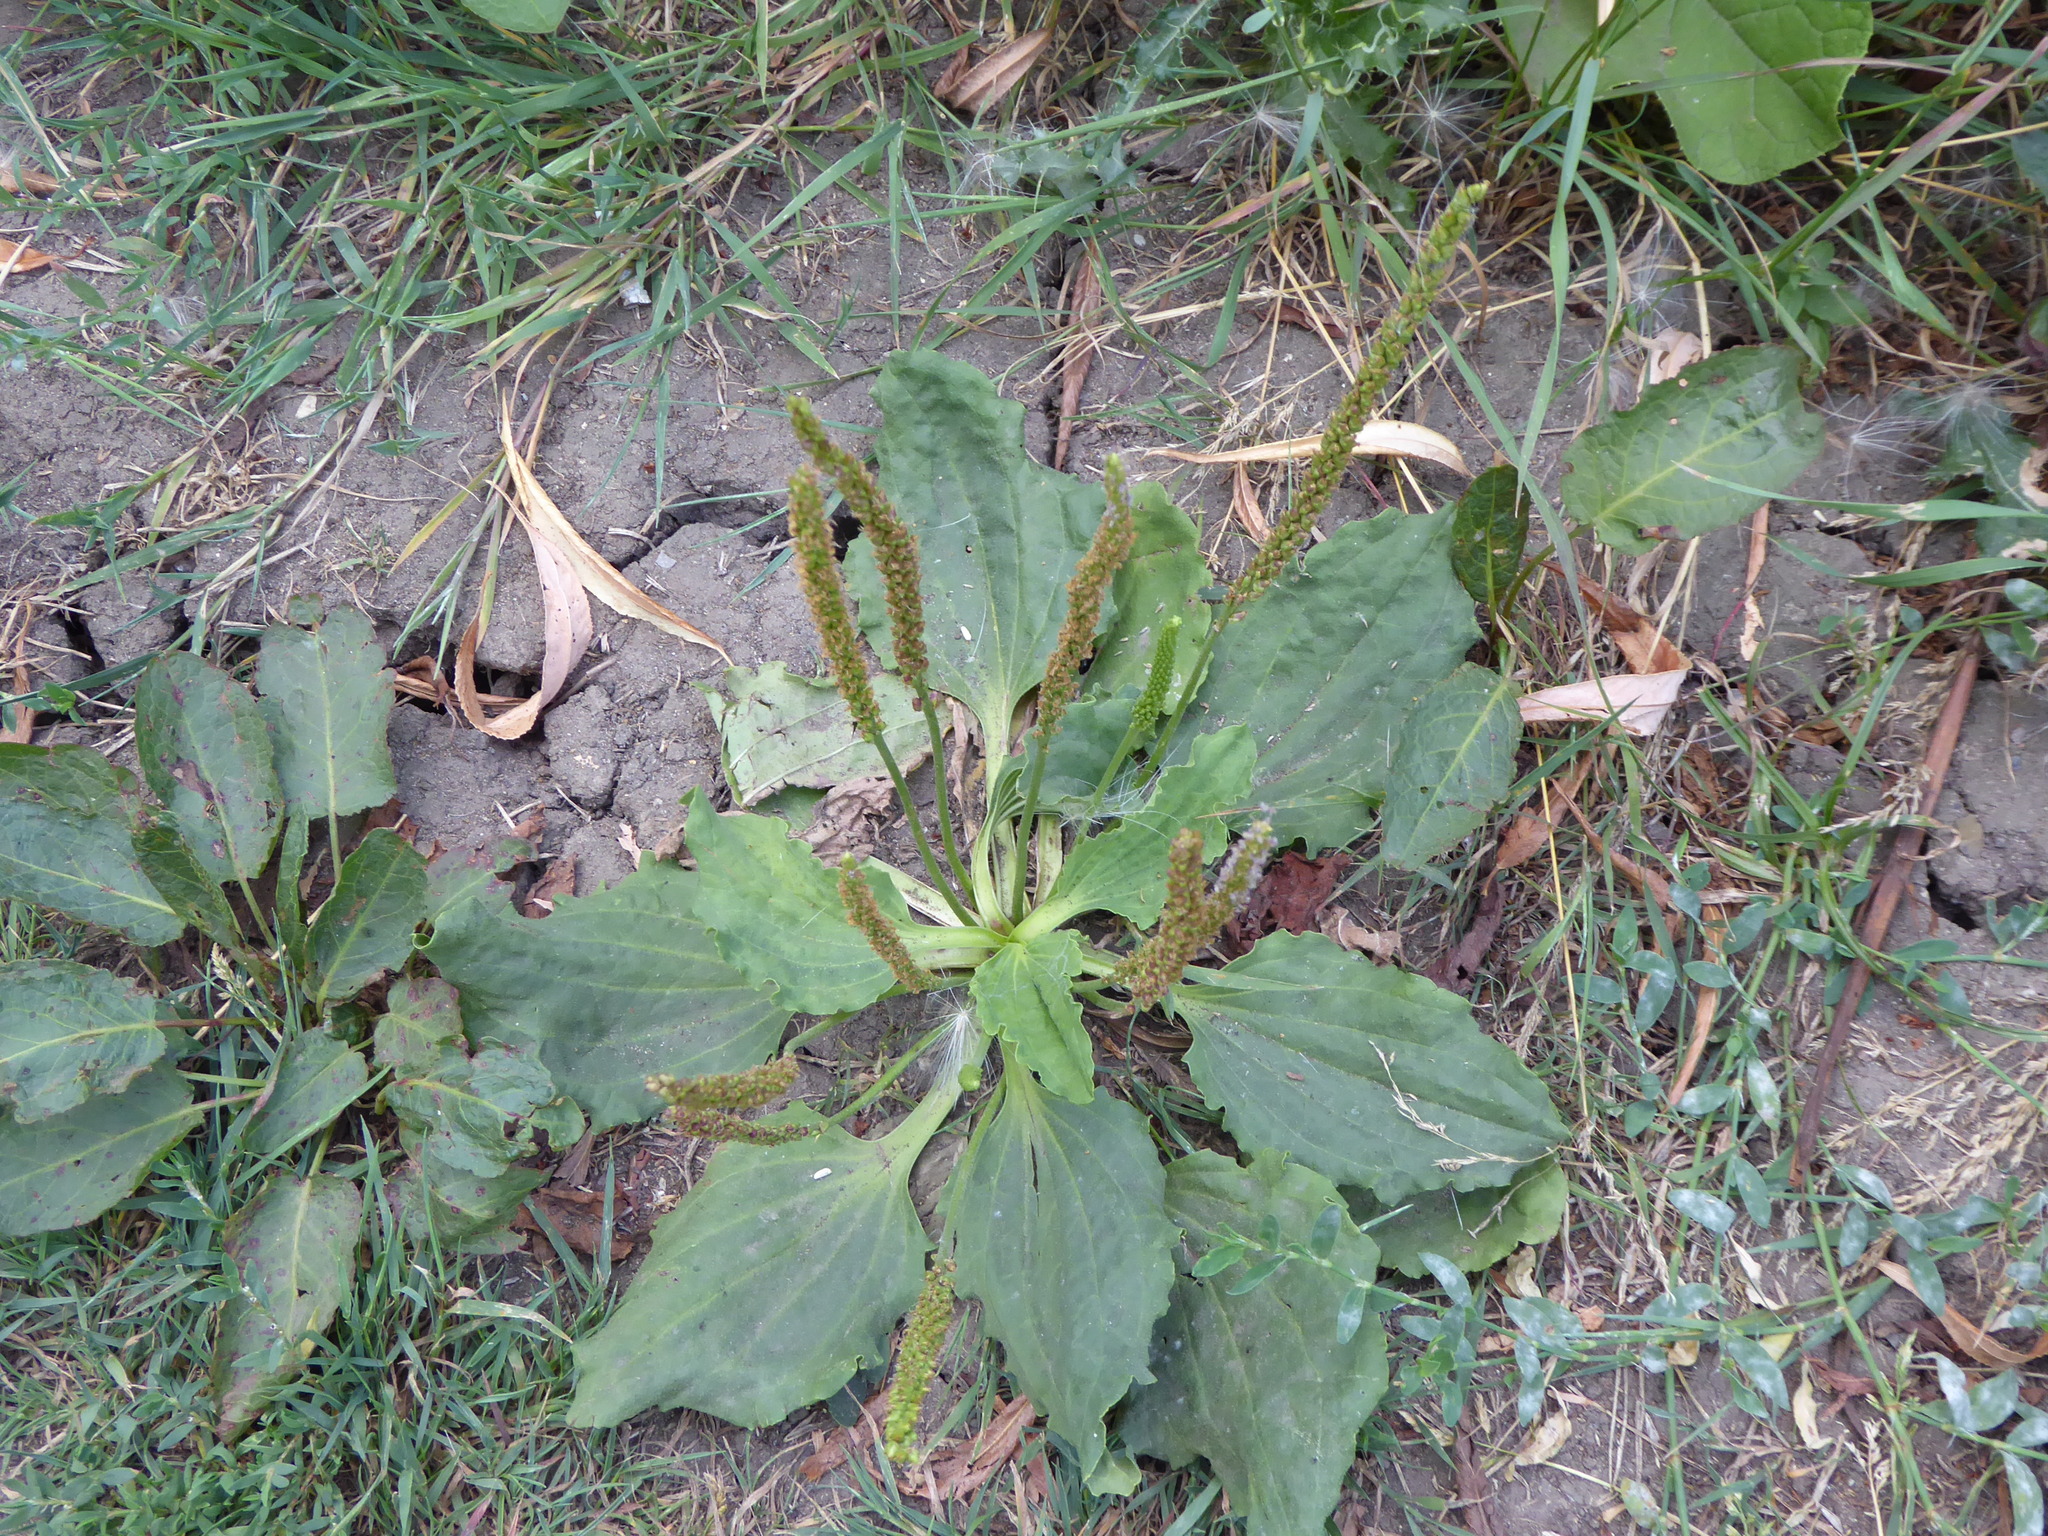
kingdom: Plantae
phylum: Tracheophyta
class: Magnoliopsida
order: Lamiales
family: Plantaginaceae
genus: Plantago
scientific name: Plantago major
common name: Common plantain
